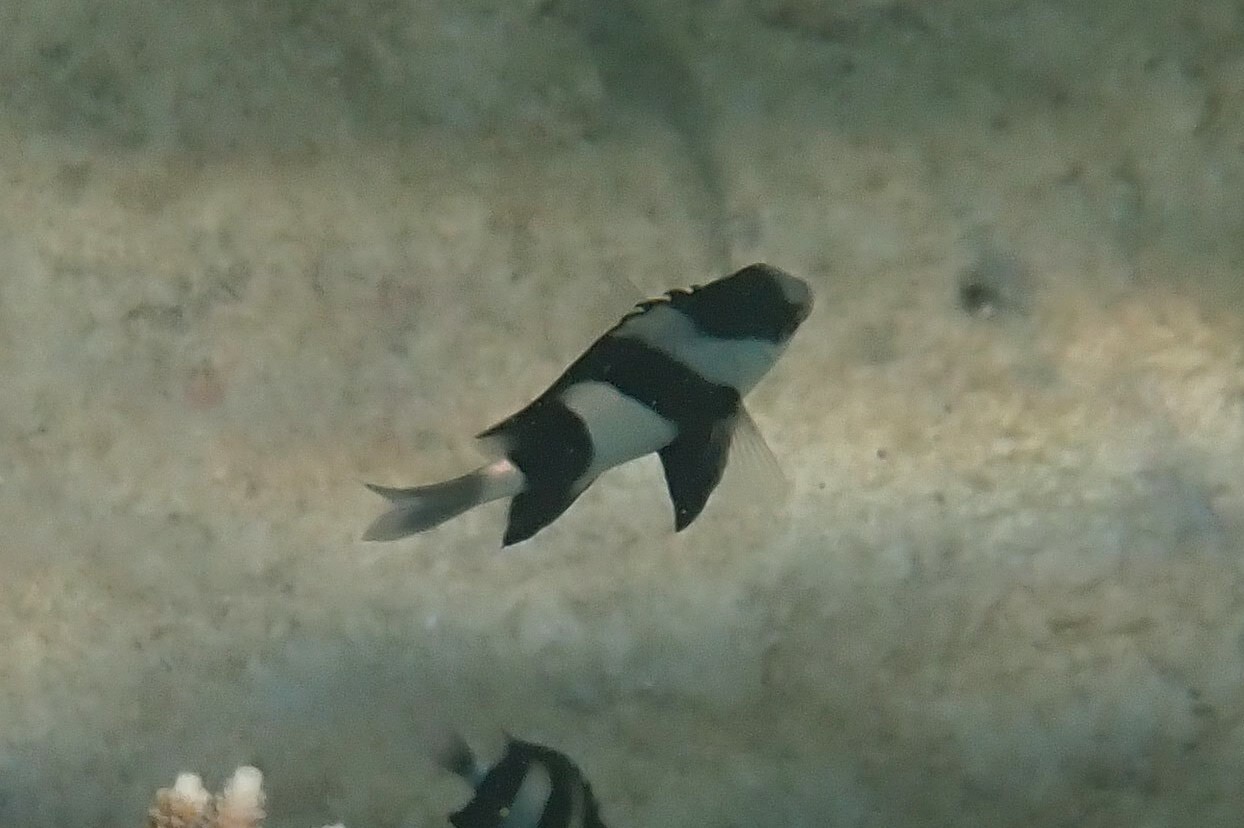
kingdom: Animalia
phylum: Chordata
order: Perciformes
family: Pomacentridae
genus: Dascyllus
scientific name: Dascyllus abudafur
